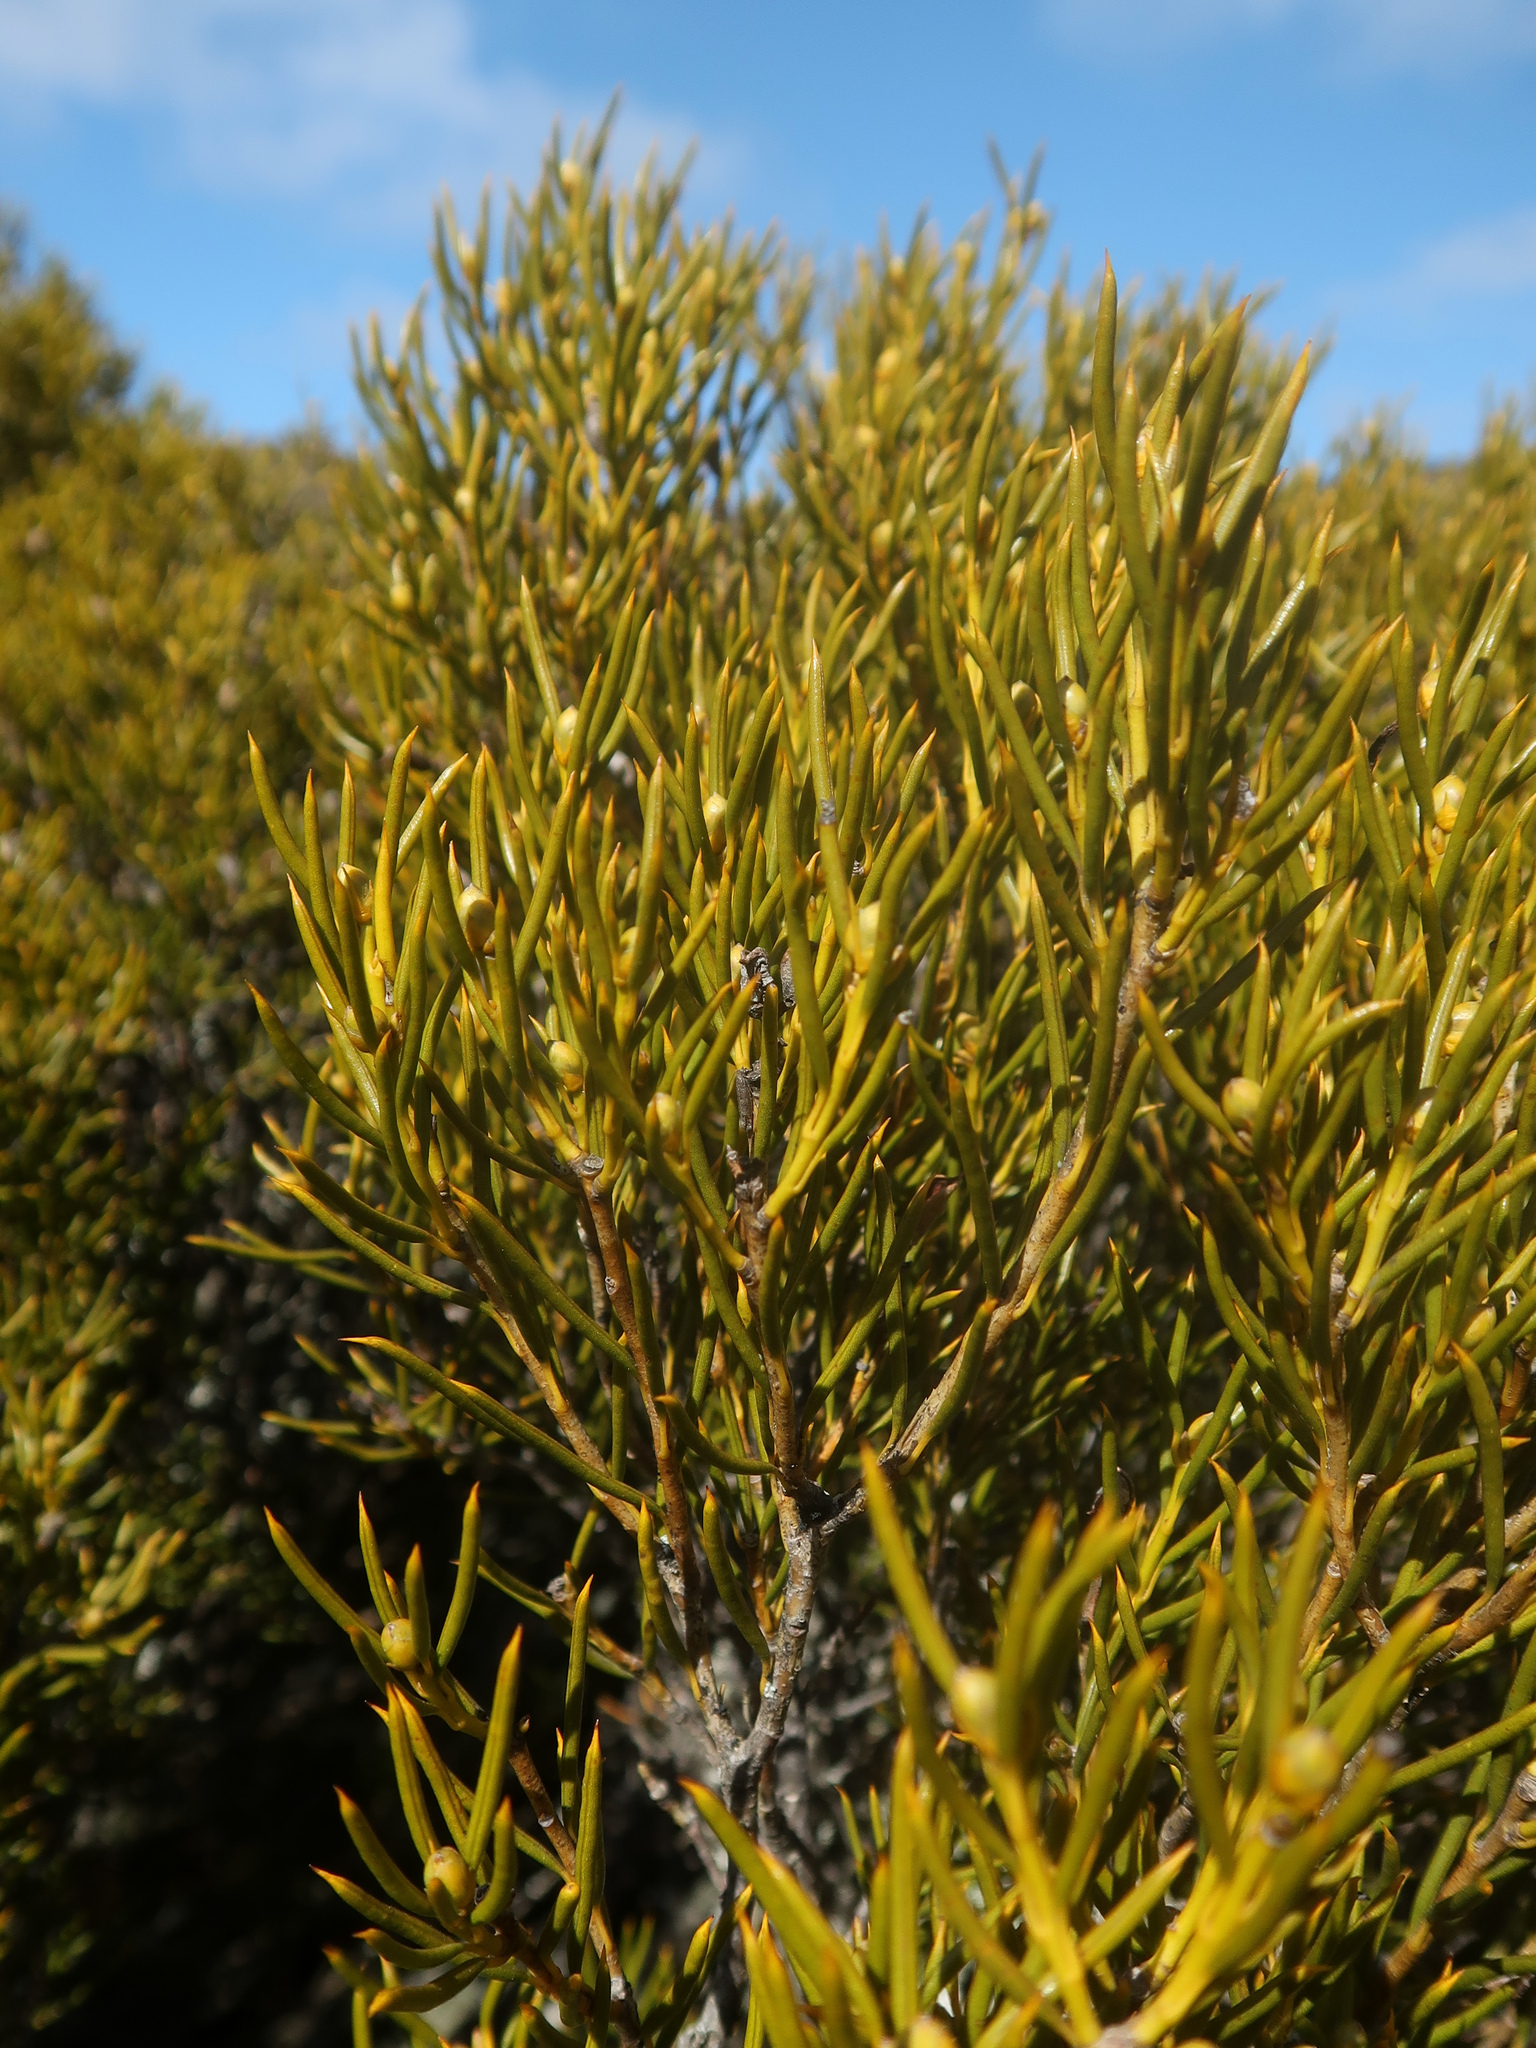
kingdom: Plantae
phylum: Tracheophyta
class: Magnoliopsida
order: Proteales
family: Proteaceae
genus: Orites
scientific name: Orites acicularis
